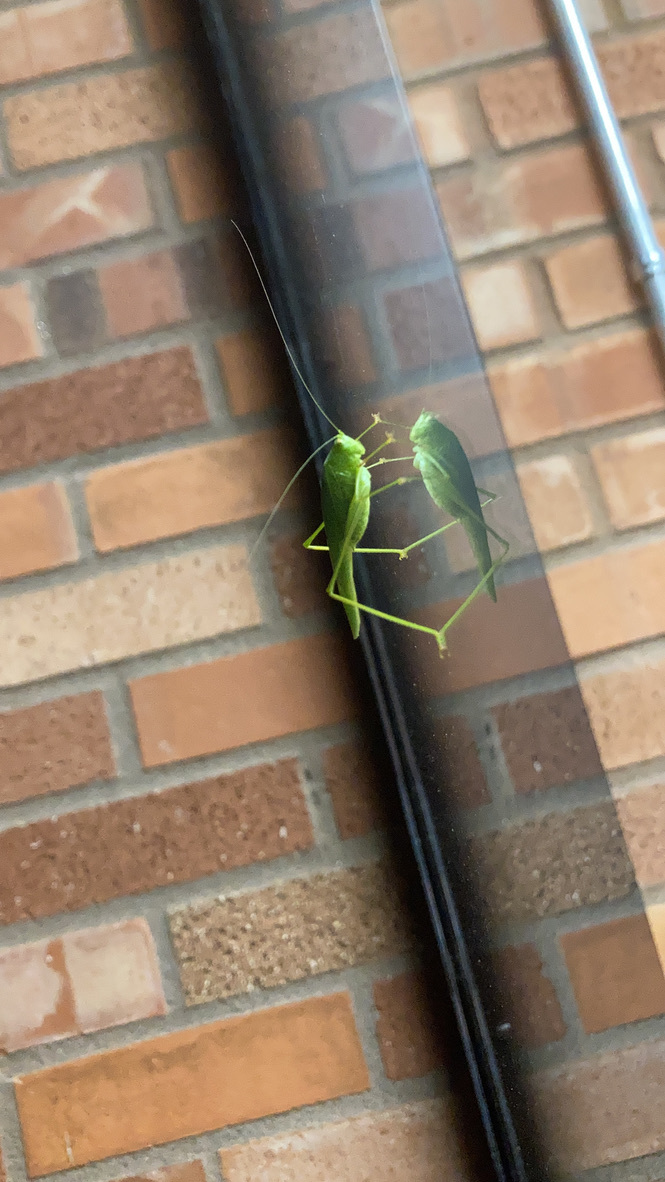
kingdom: Animalia
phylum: Arthropoda
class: Insecta
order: Orthoptera
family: Tettigoniidae
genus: Phaneroptera
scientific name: Phaneroptera nana
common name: Southern sickle bush-cricket
